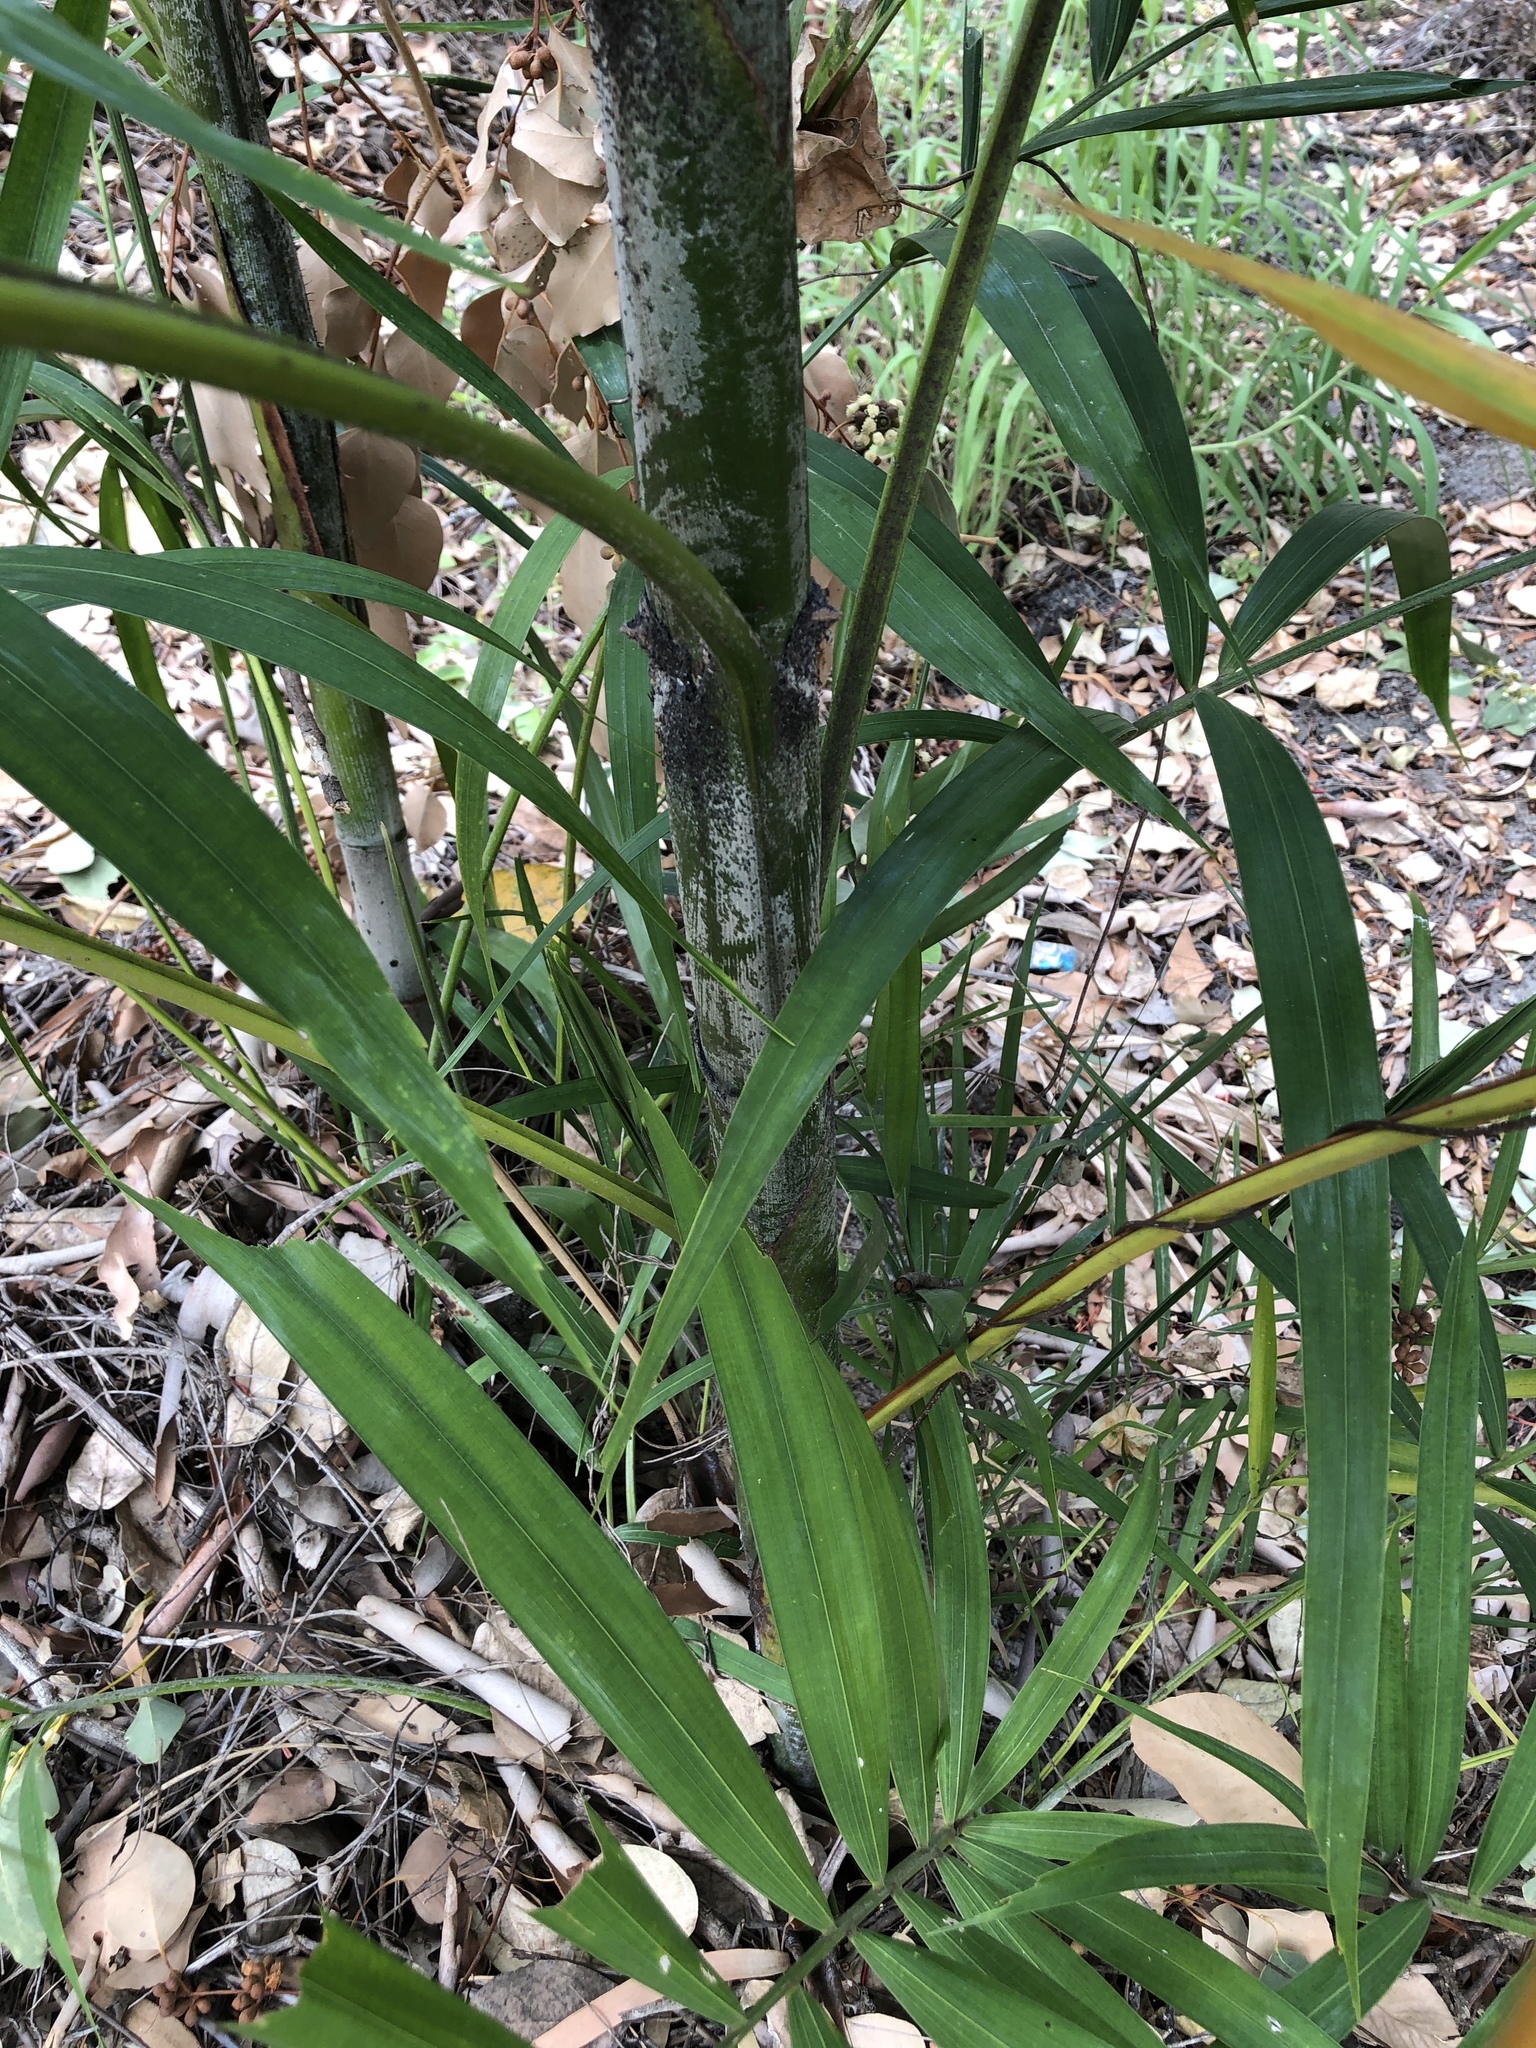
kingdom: Plantae
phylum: Tracheophyta
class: Liliopsida
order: Arecales
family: Arecaceae
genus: Ptychosperma
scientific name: Ptychosperma macarthurii
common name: Macarthur palm
